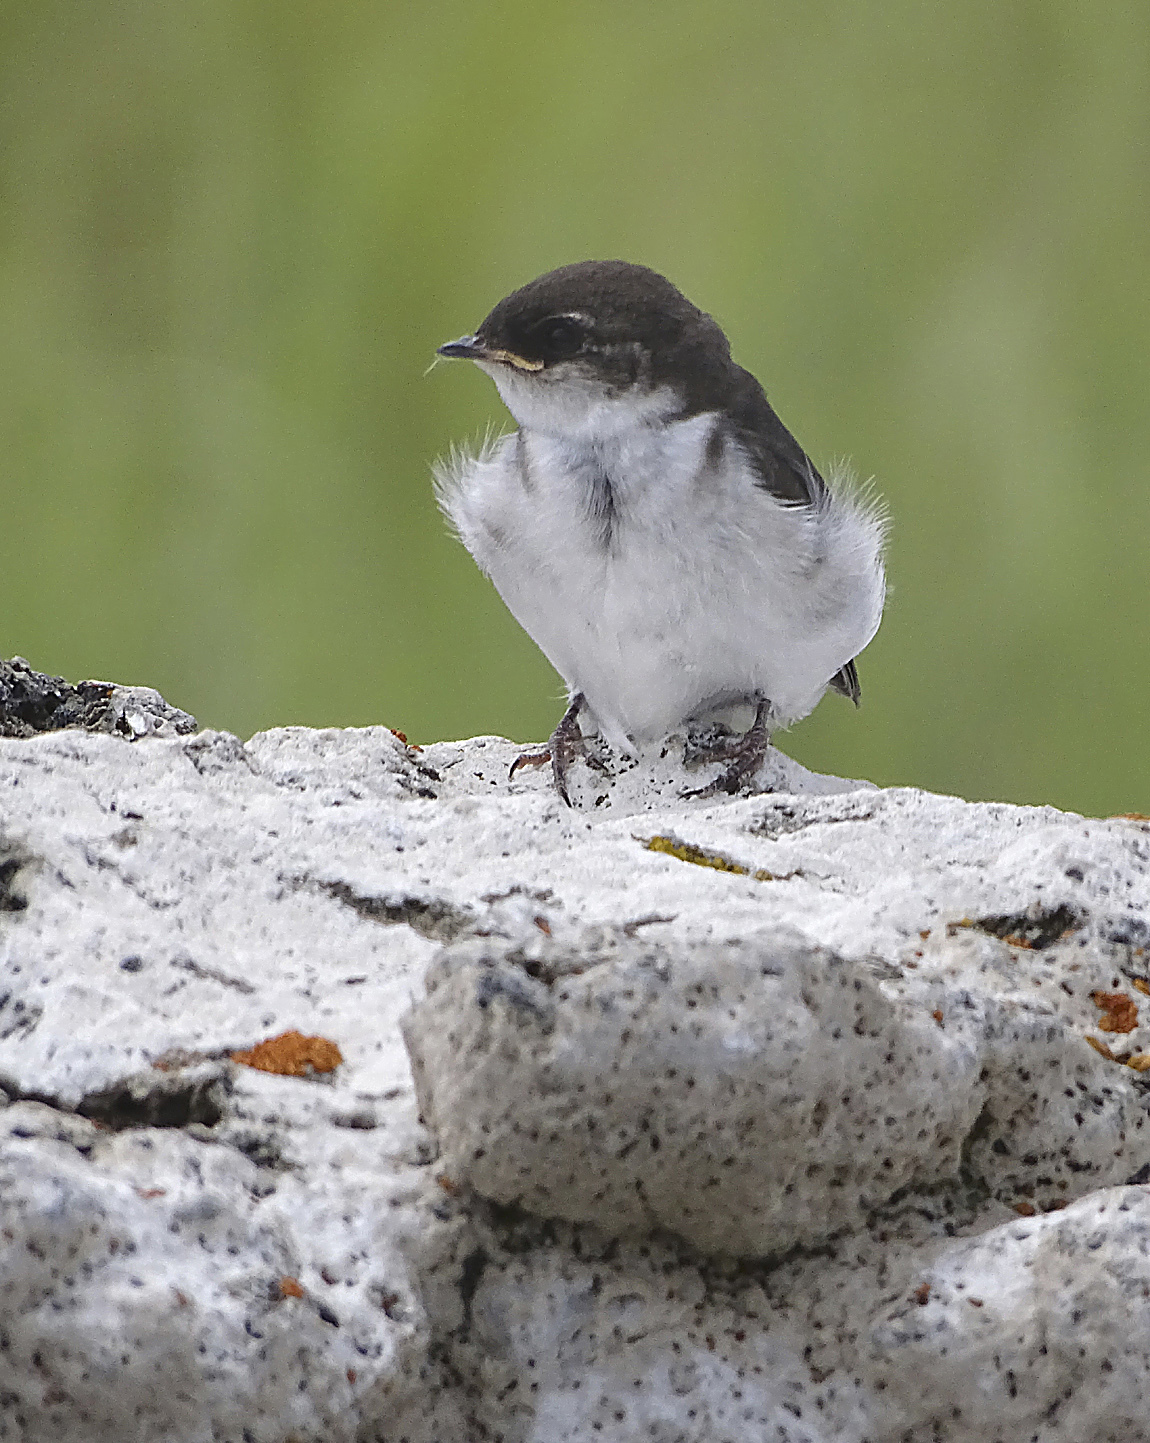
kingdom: Animalia
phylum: Chordata
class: Aves
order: Passeriformes
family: Hirundinidae
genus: Tachycineta
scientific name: Tachycineta thalassina
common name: Violet-green swallow
